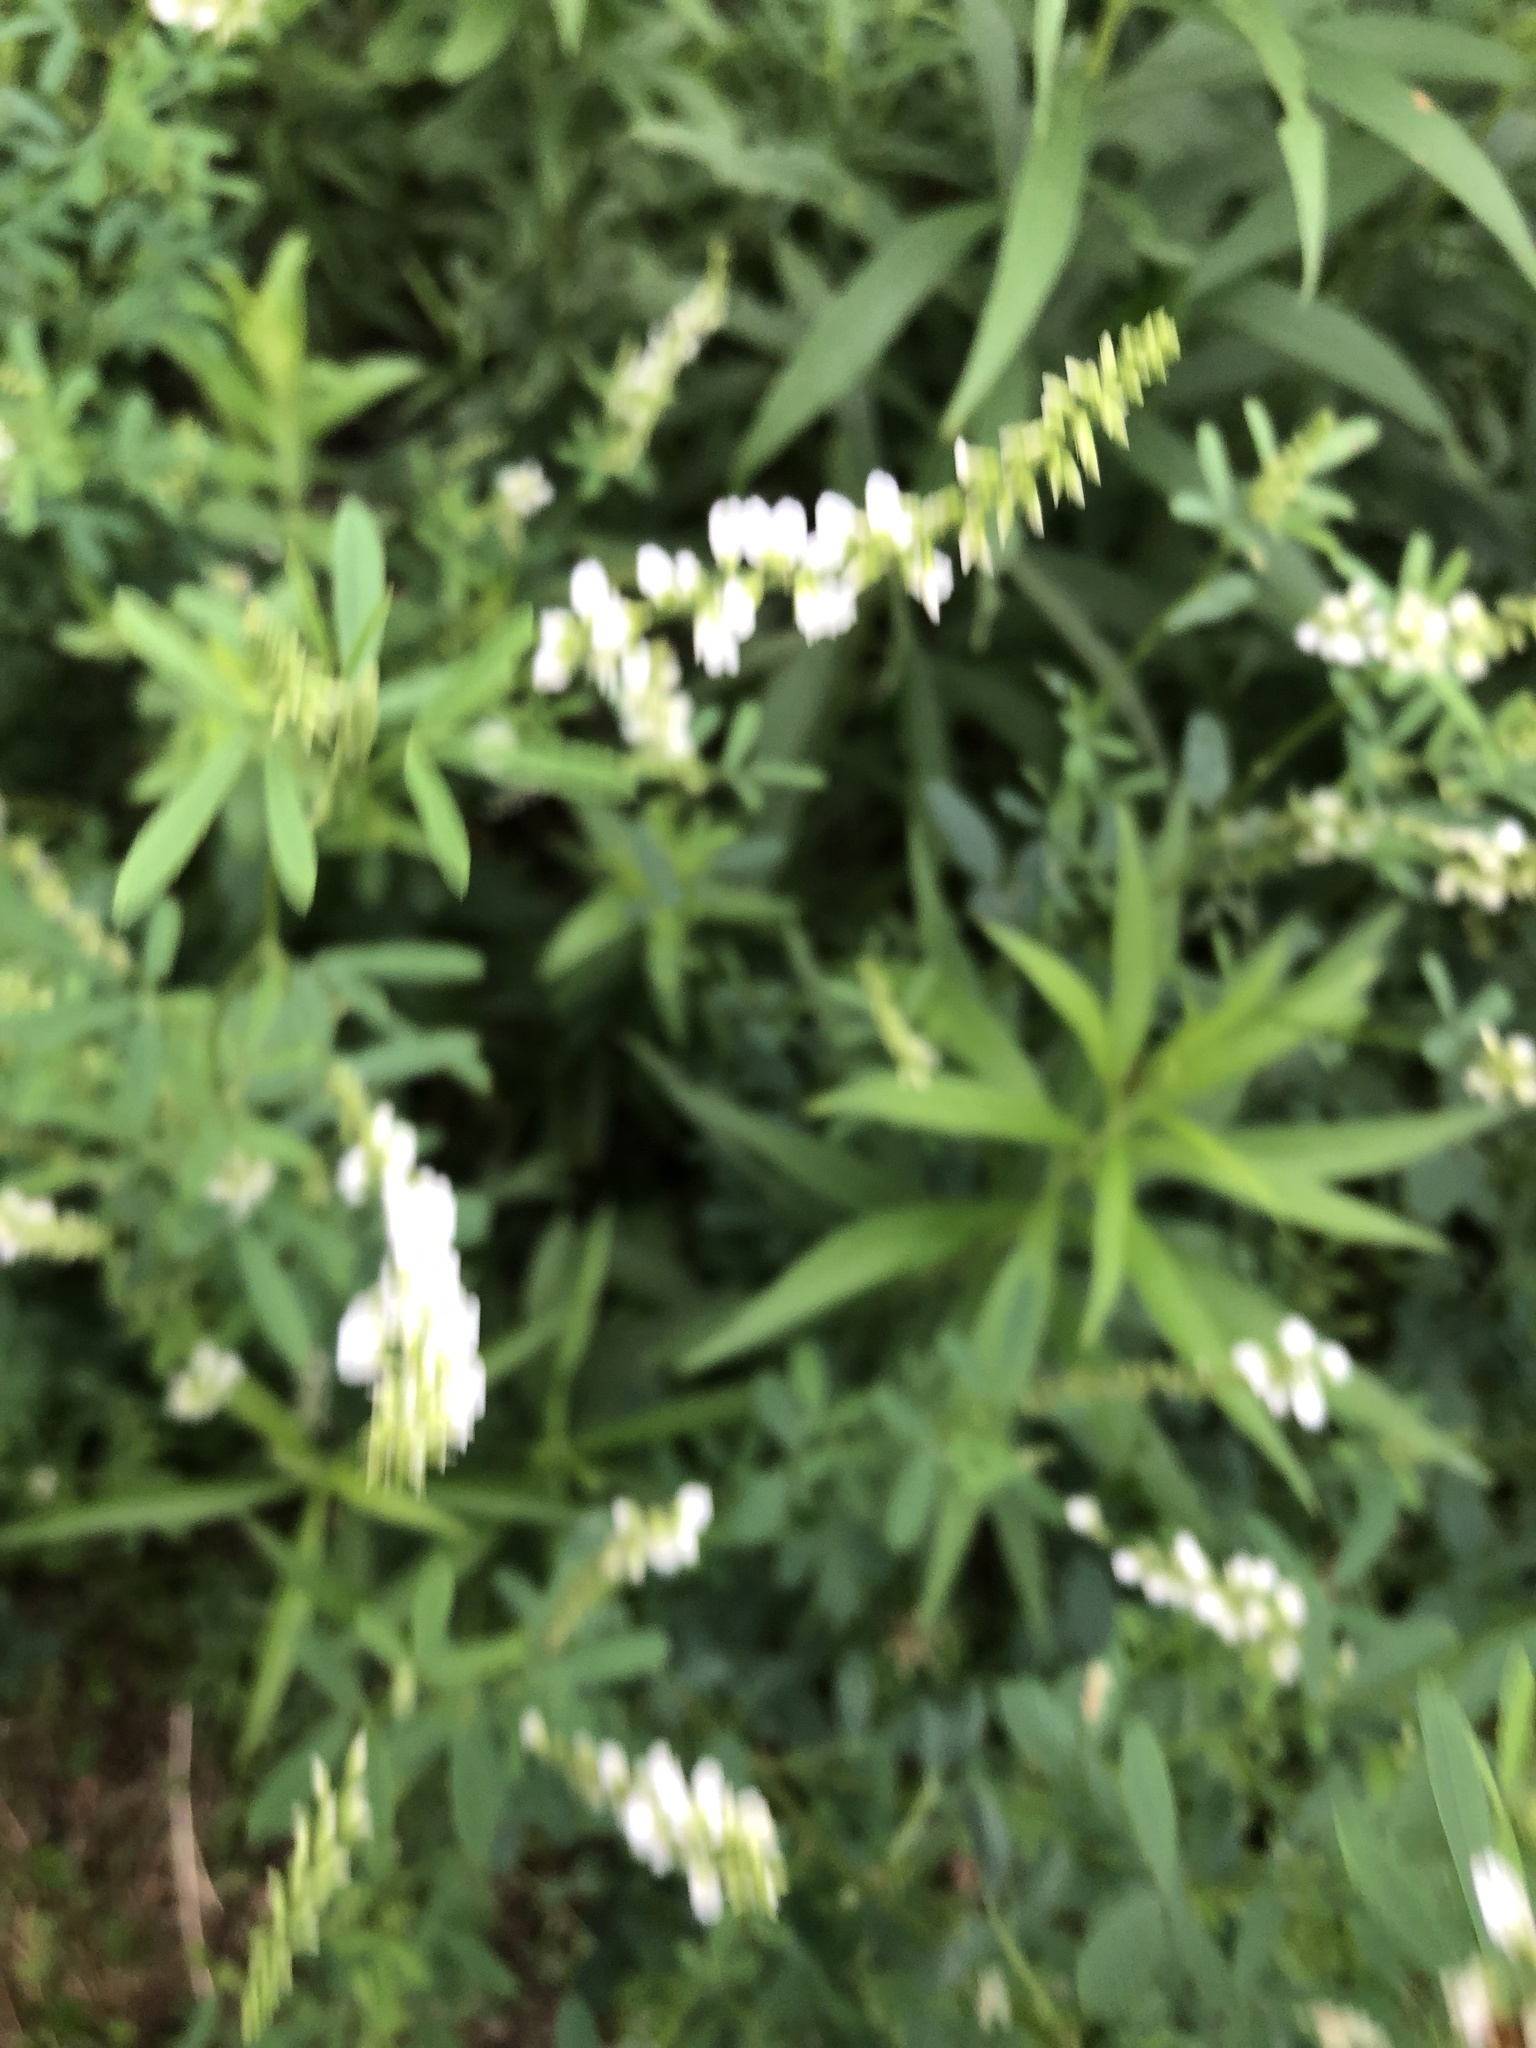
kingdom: Plantae
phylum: Tracheophyta
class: Magnoliopsida
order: Fabales
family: Fabaceae
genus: Melilotus
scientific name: Melilotus albus
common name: White melilot
